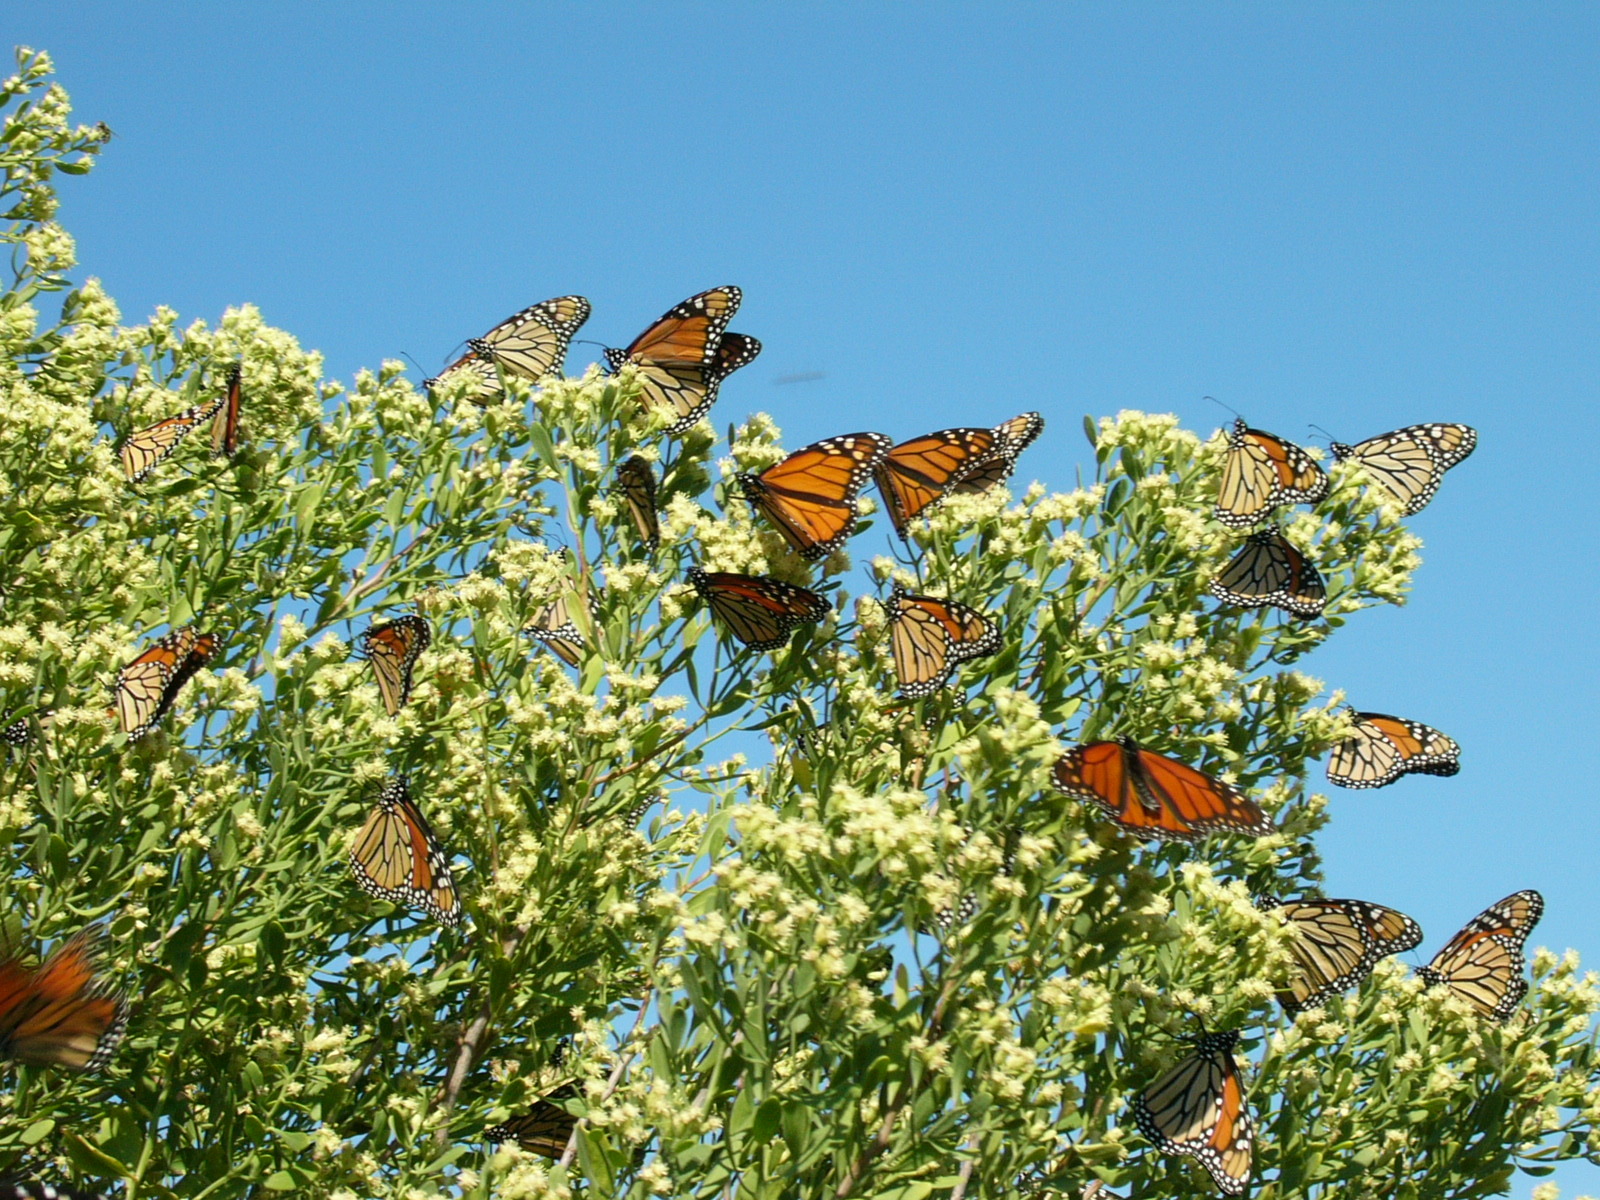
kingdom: Animalia
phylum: Arthropoda
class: Insecta
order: Lepidoptera
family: Nymphalidae
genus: Danaus
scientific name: Danaus plexippus
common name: Monarch
